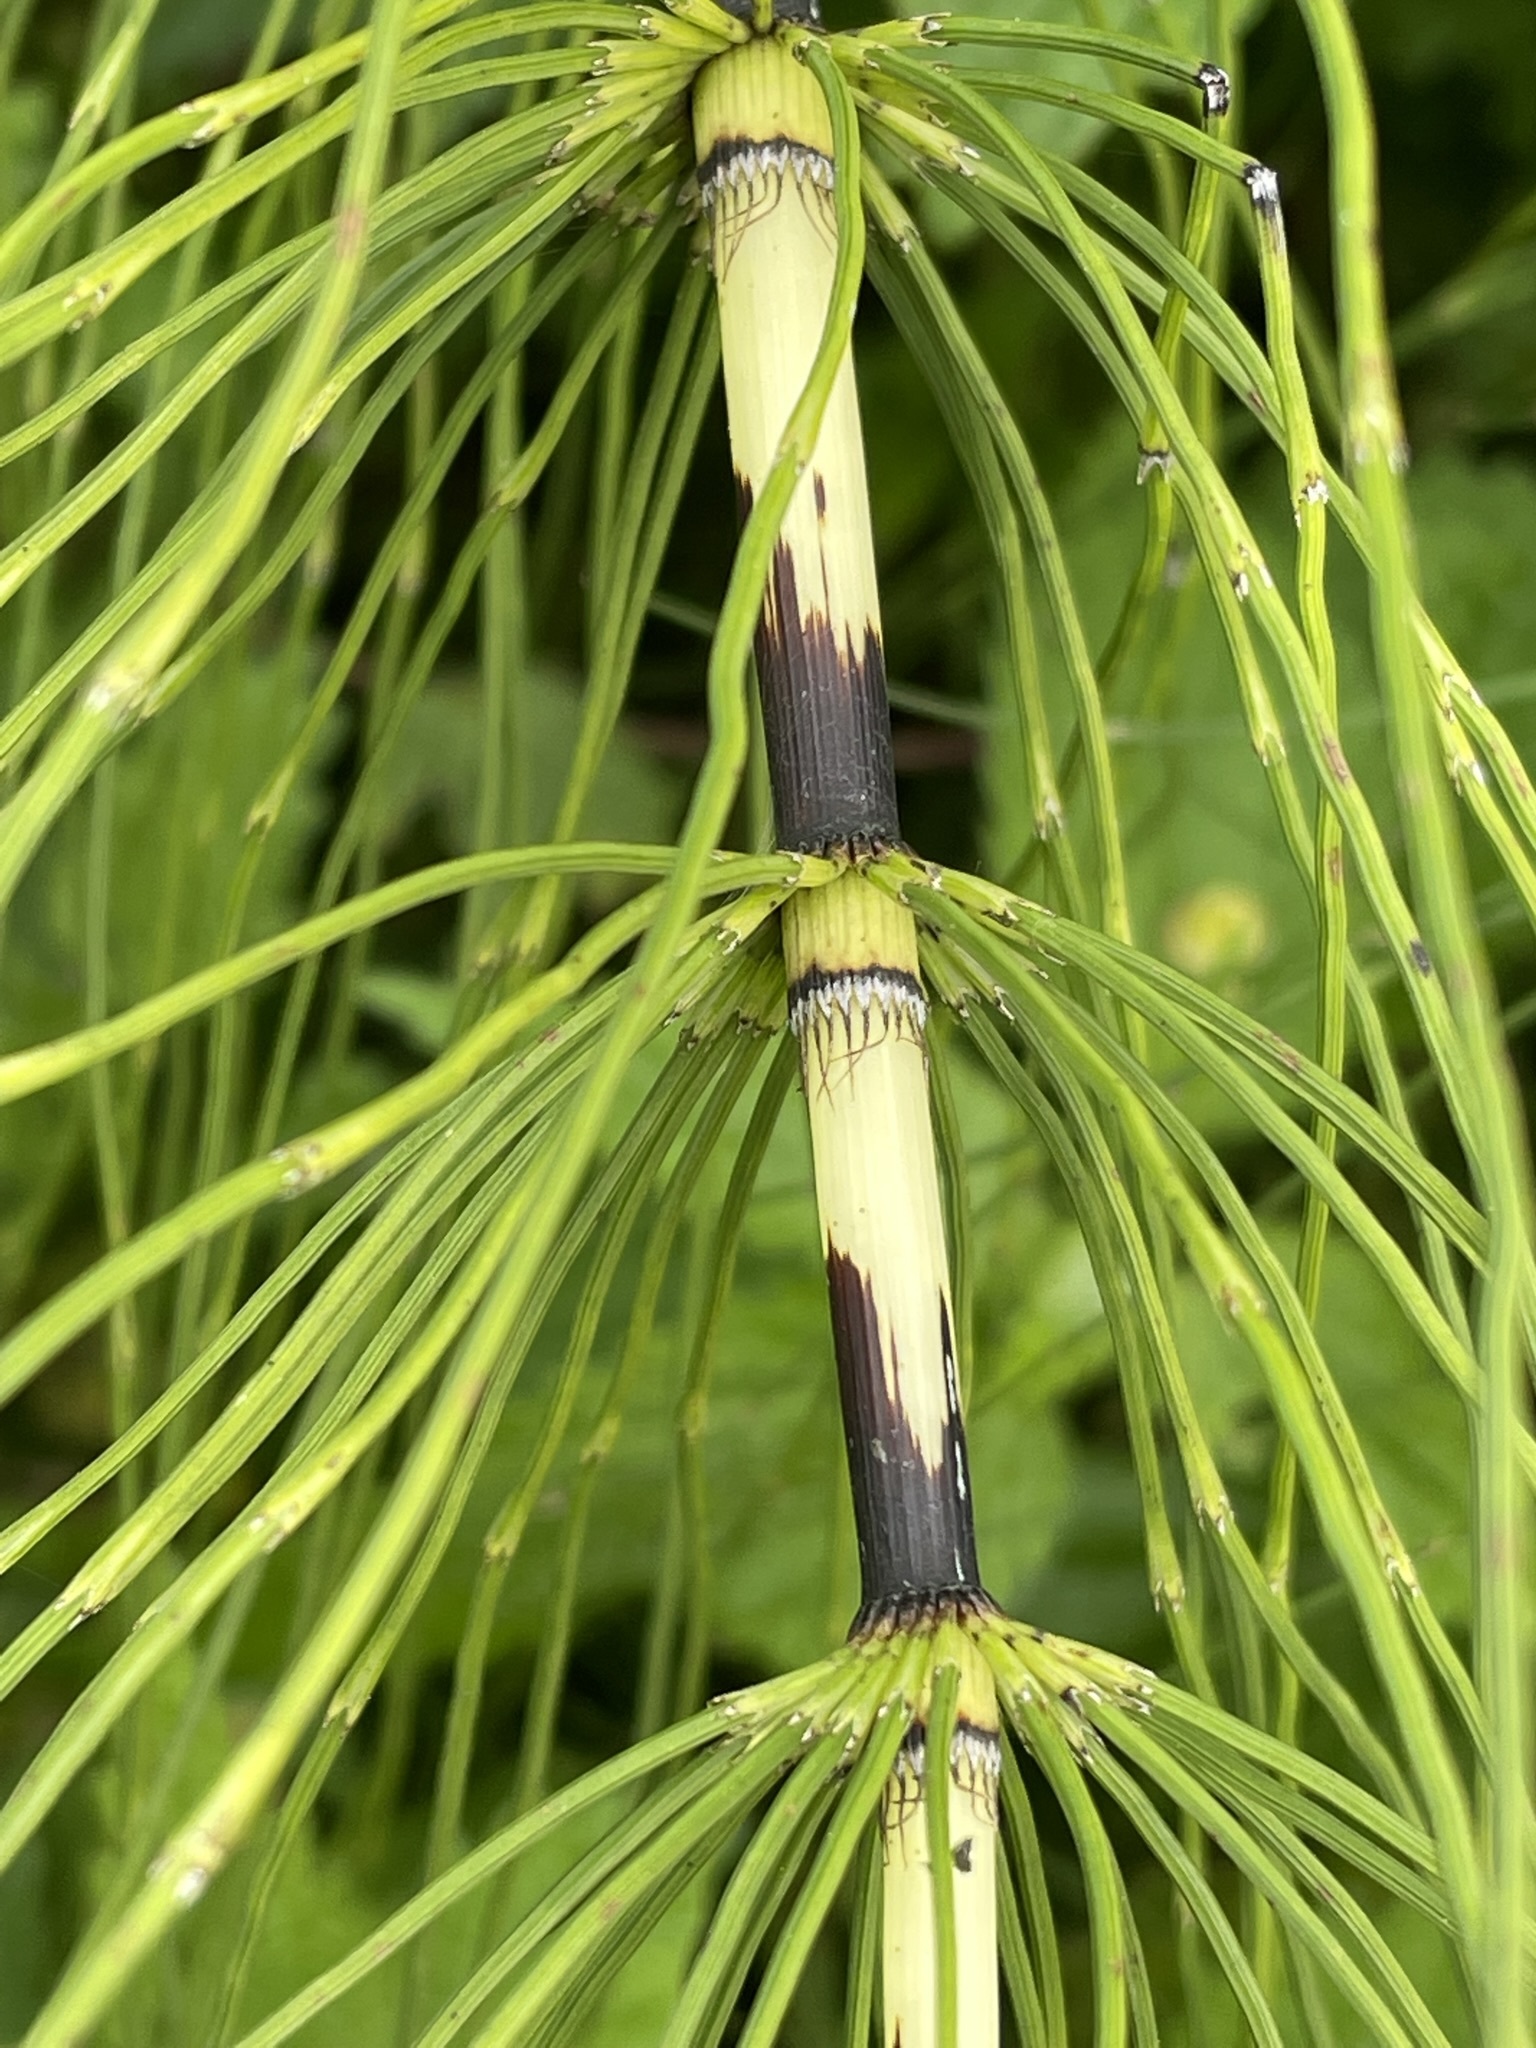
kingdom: Plantae
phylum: Tracheophyta
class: Polypodiopsida
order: Equisetales
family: Equisetaceae
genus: Equisetum
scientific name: Equisetum telmateia
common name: Great horsetail
